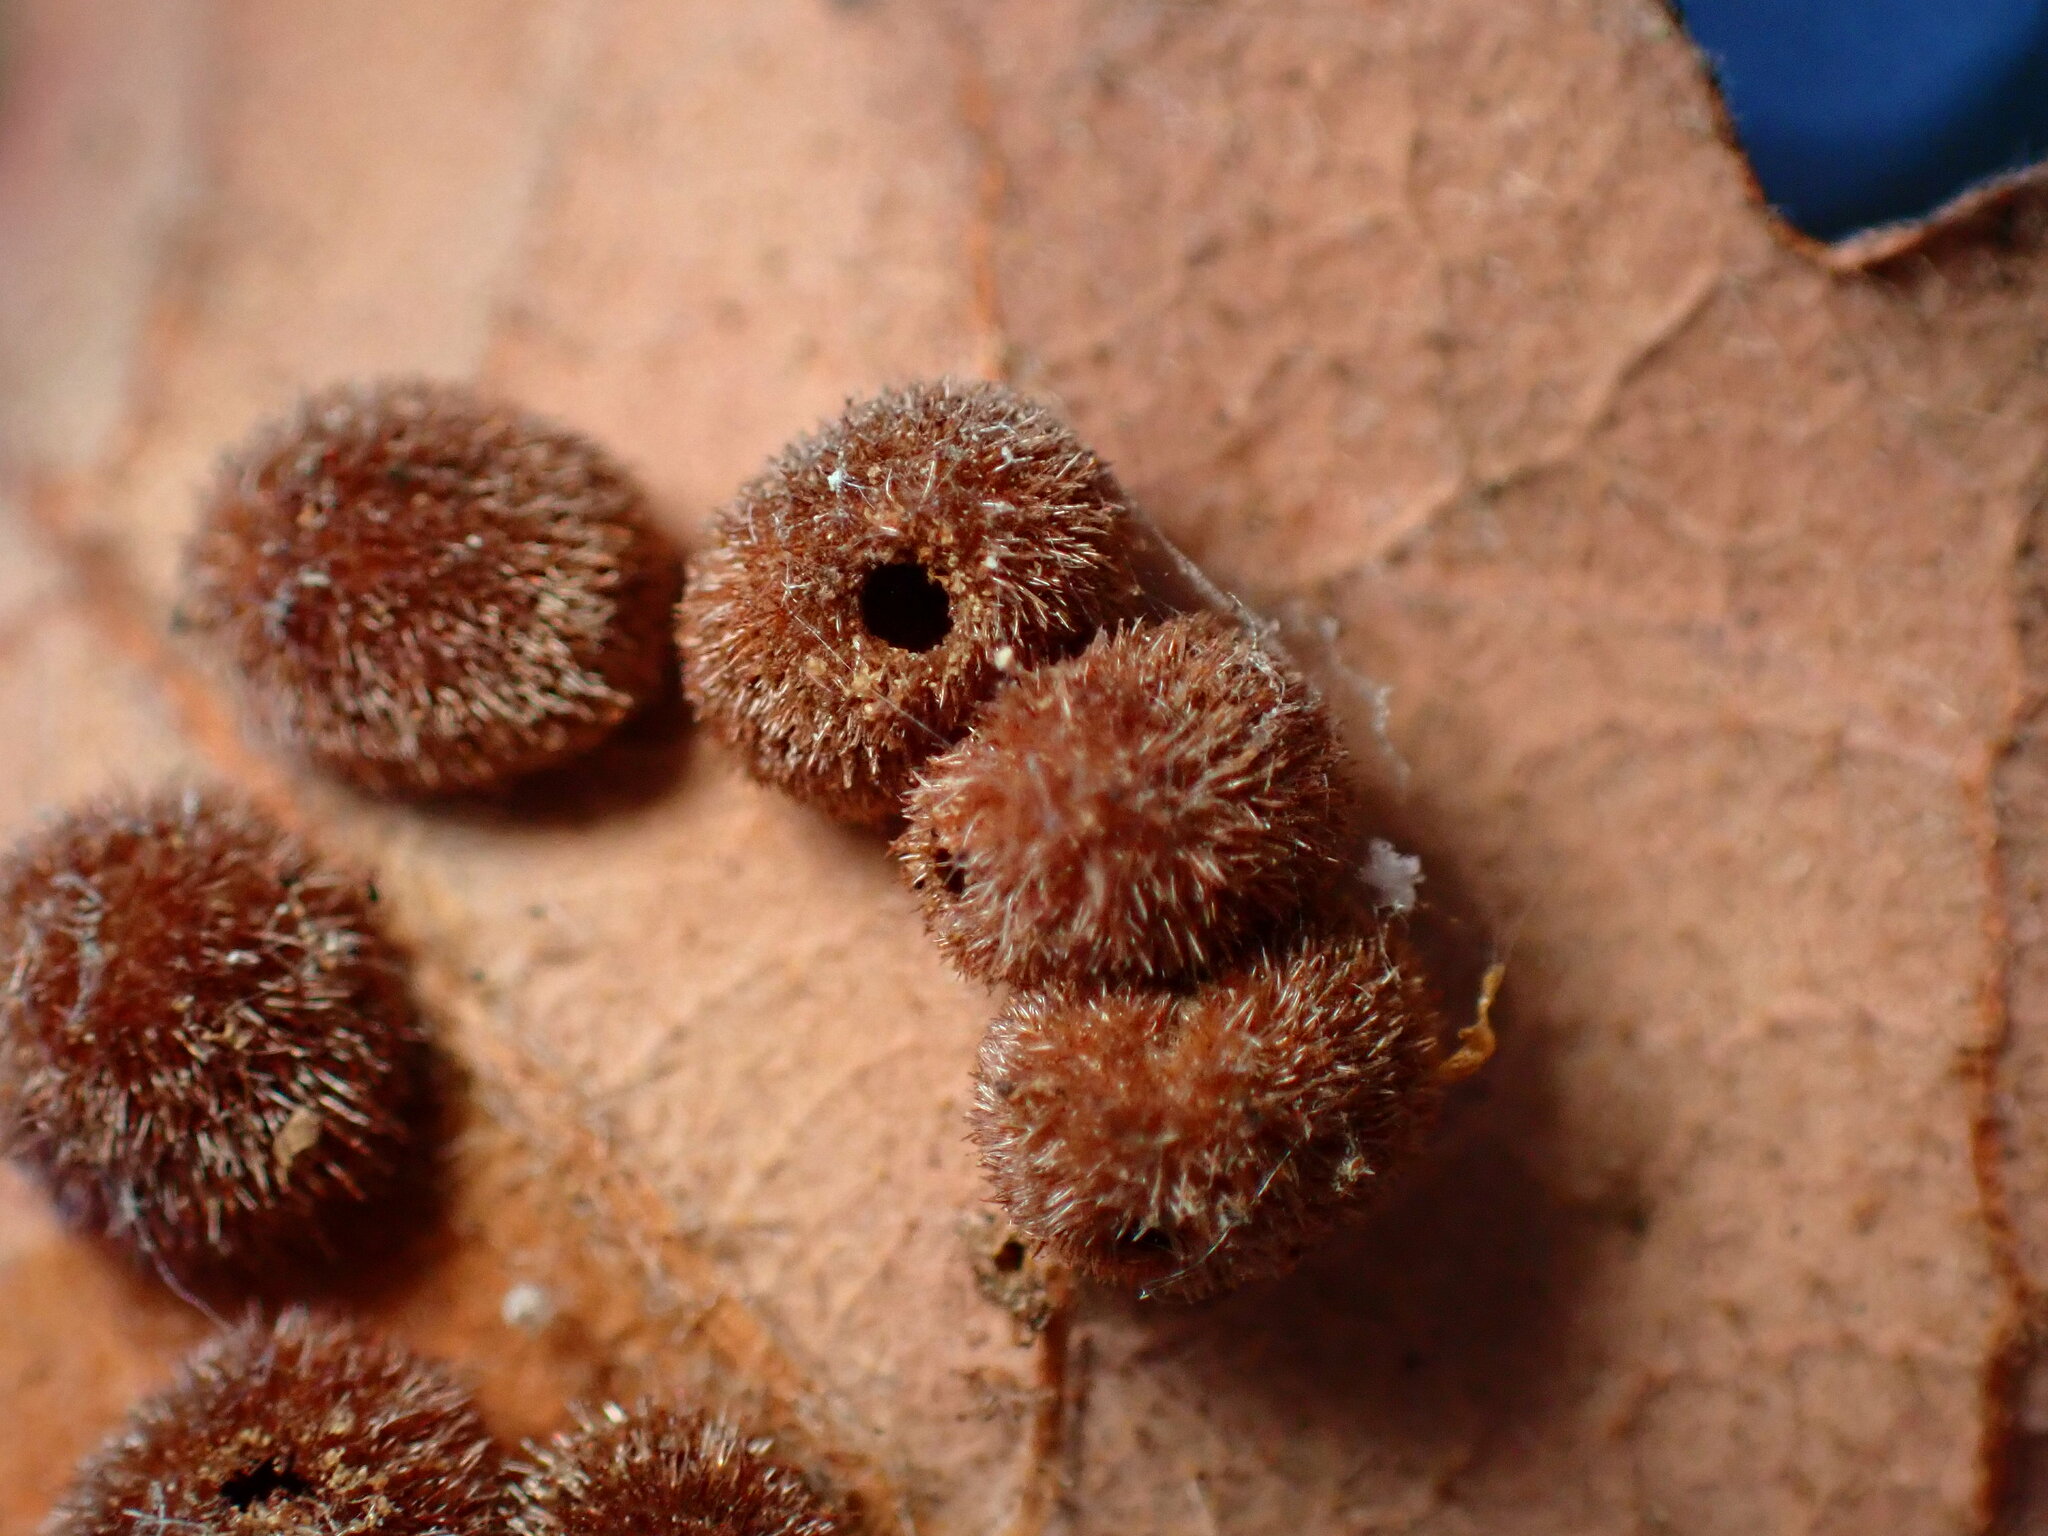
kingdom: Animalia
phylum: Arthropoda
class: Insecta
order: Hymenoptera
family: Cynipidae
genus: Atrusca
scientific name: Atrusca
